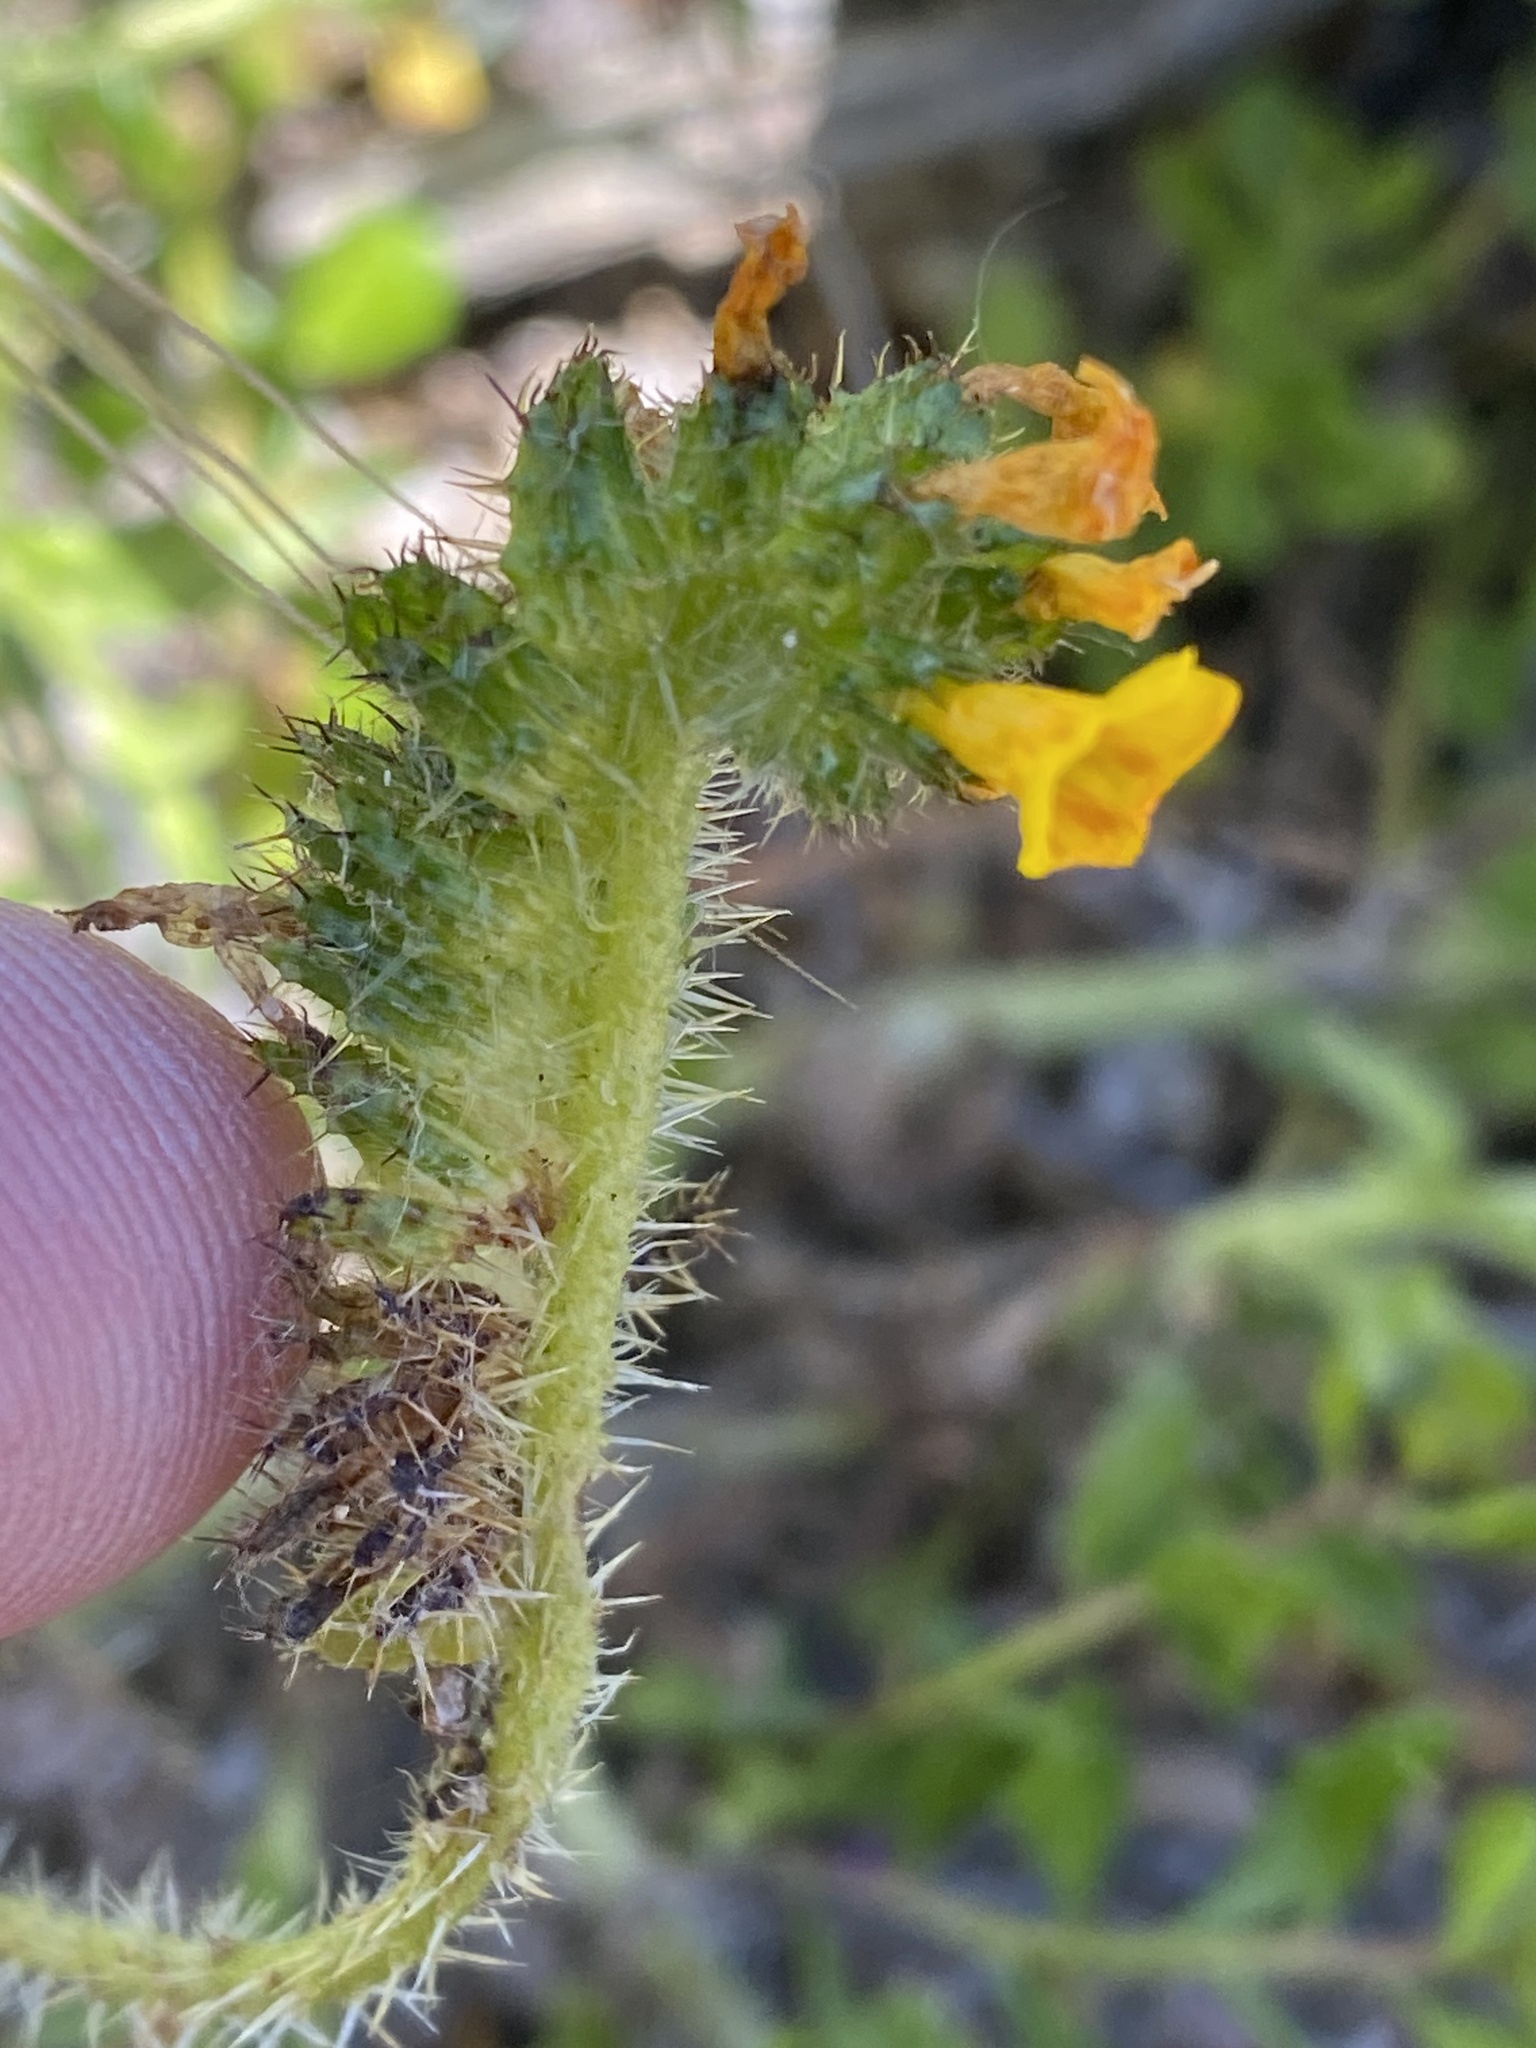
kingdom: Plantae
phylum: Tracheophyta
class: Magnoliopsida
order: Boraginales
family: Boraginaceae
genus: Amsinckia
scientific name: Amsinckia spectabilis
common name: Seaside fiddleneck
